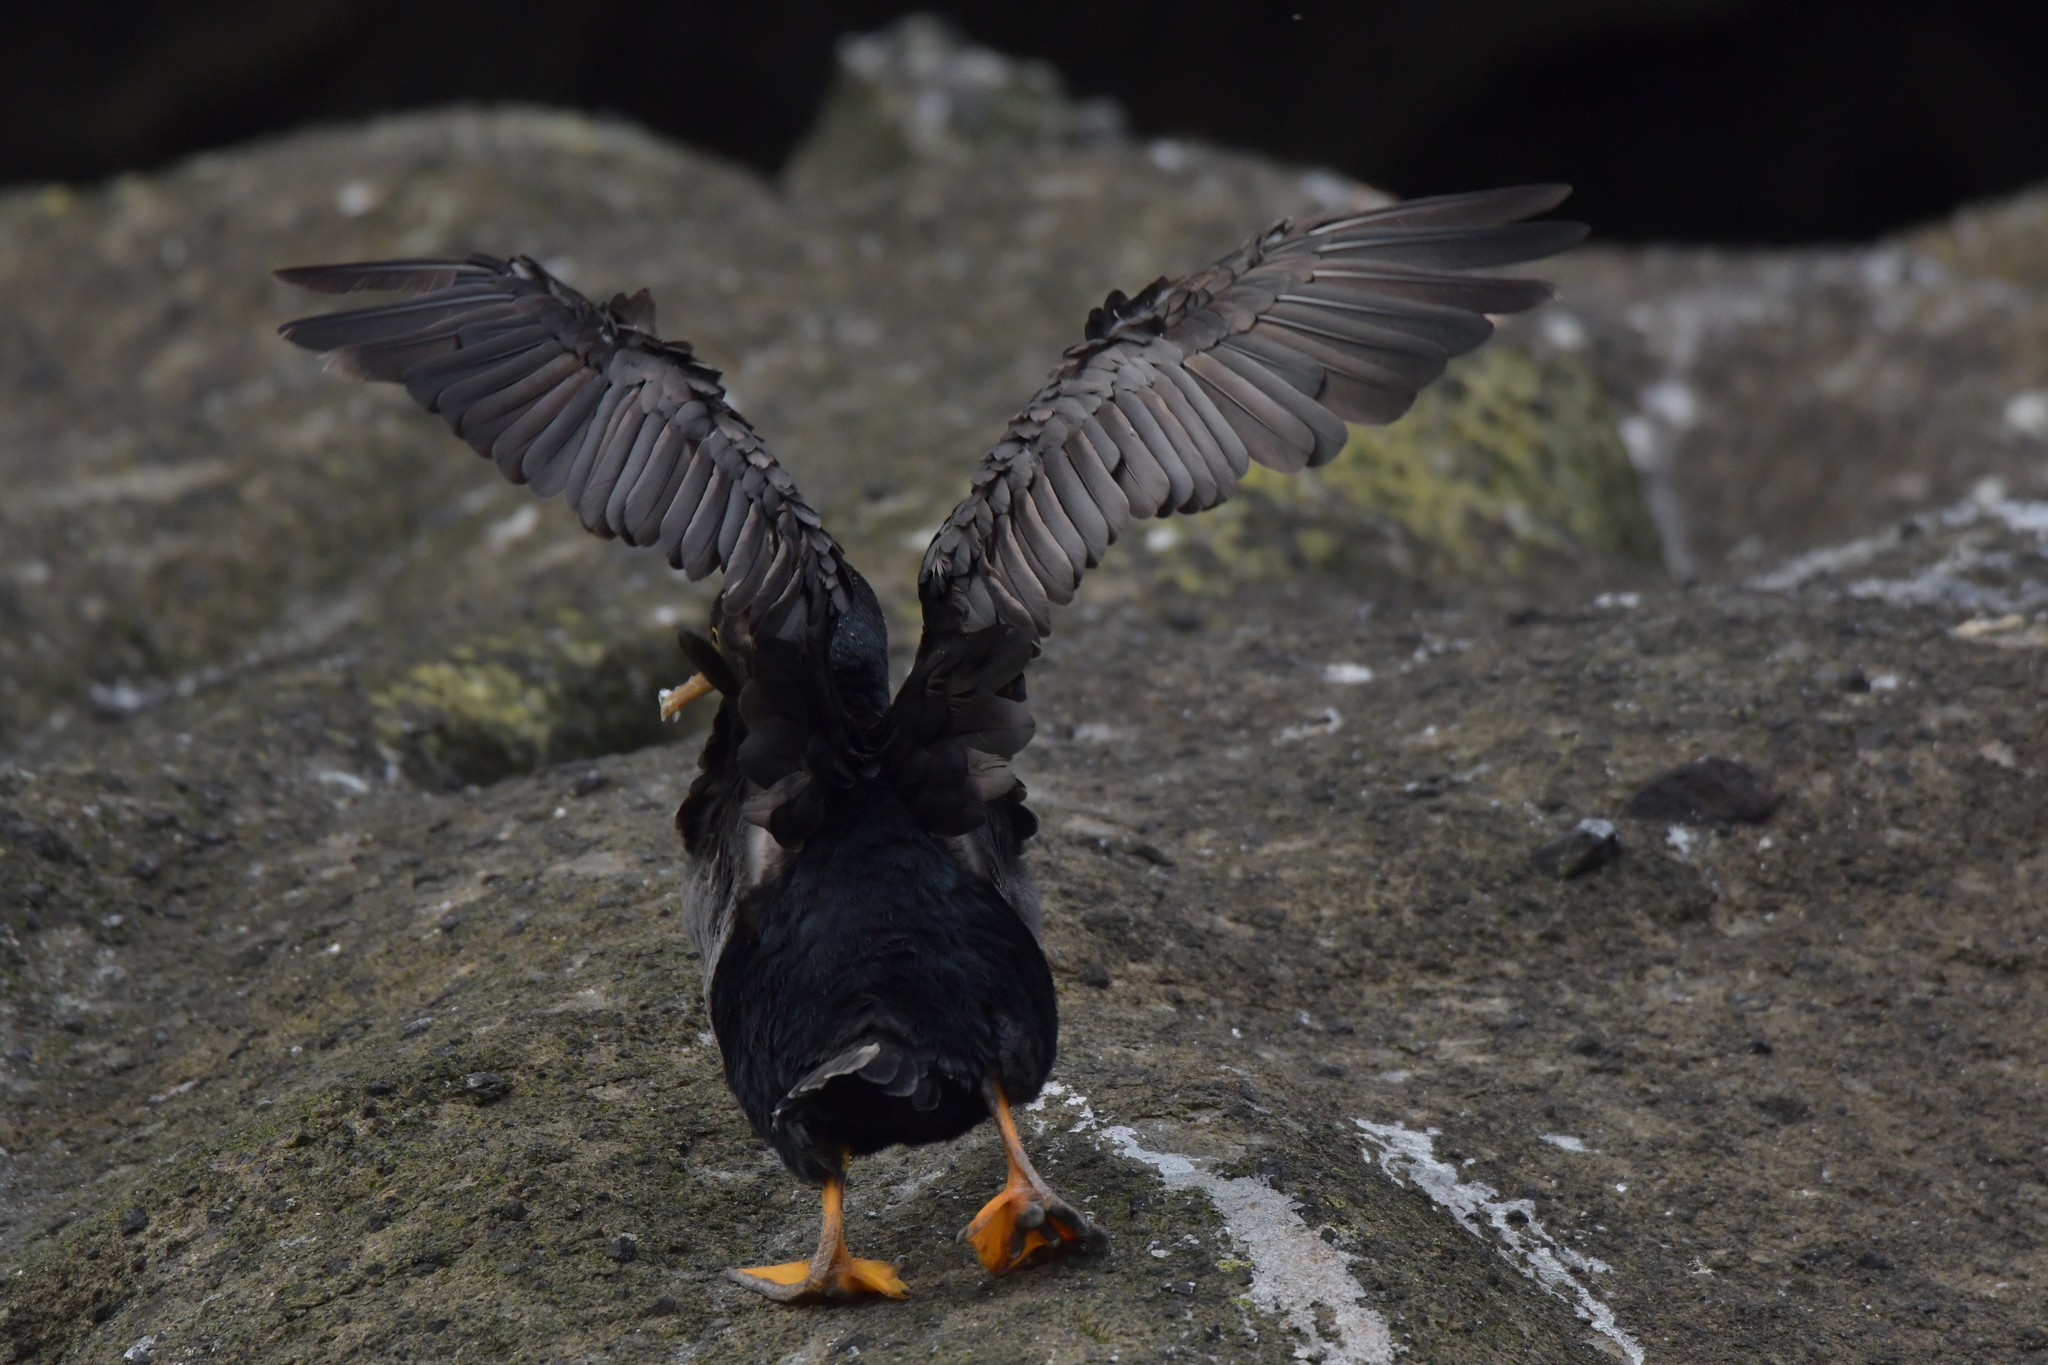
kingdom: Animalia
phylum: Chordata
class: Aves
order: Suliformes
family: Phalacrocoracidae
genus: Phalacrocorax
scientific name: Phalacrocorax featherstoni
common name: Pitt shag
